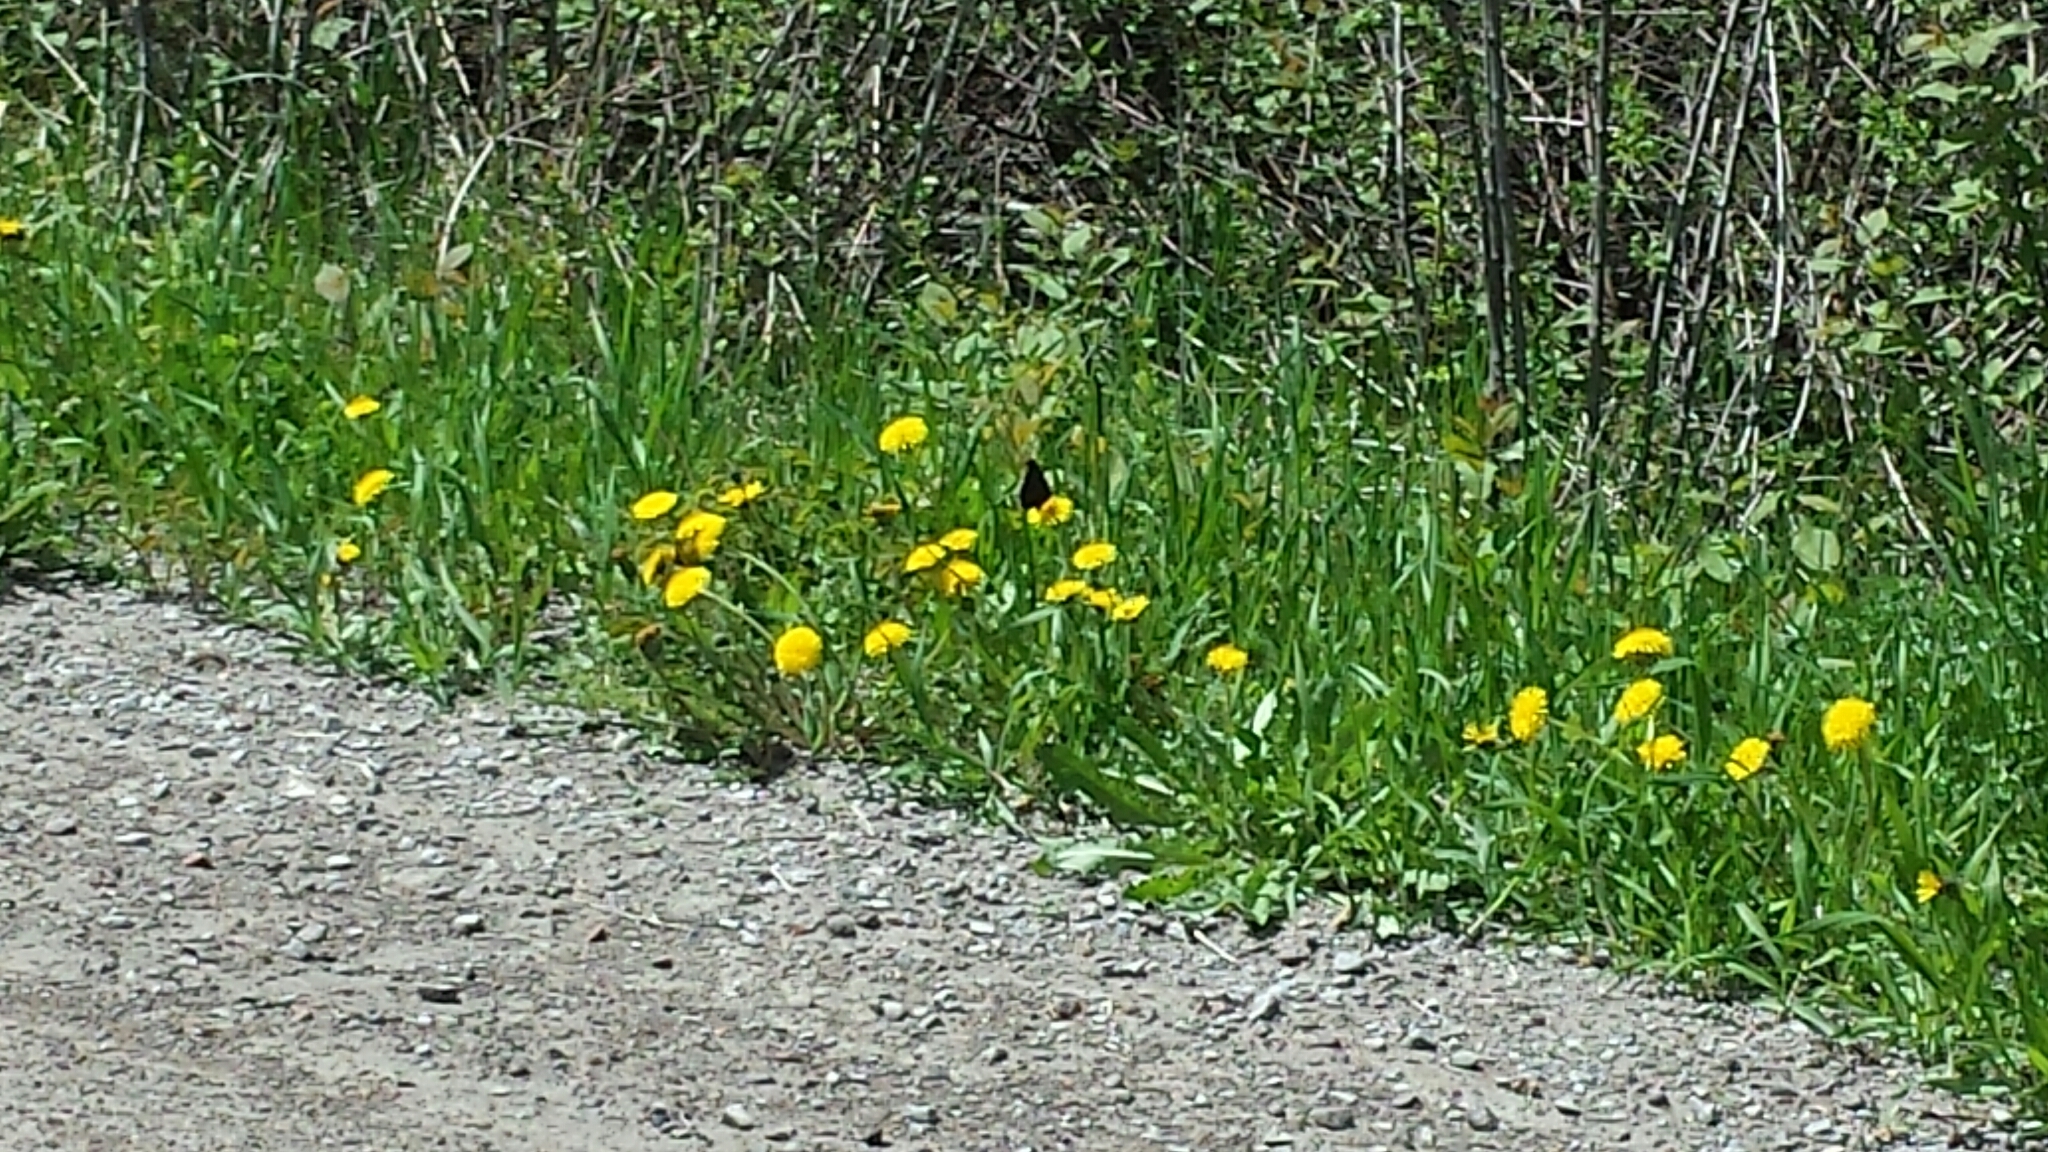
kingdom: Animalia
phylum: Arthropoda
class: Insecta
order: Lepidoptera
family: Nymphalidae
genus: Nymphalis
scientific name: Nymphalis antiopa
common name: Camberwell beauty
